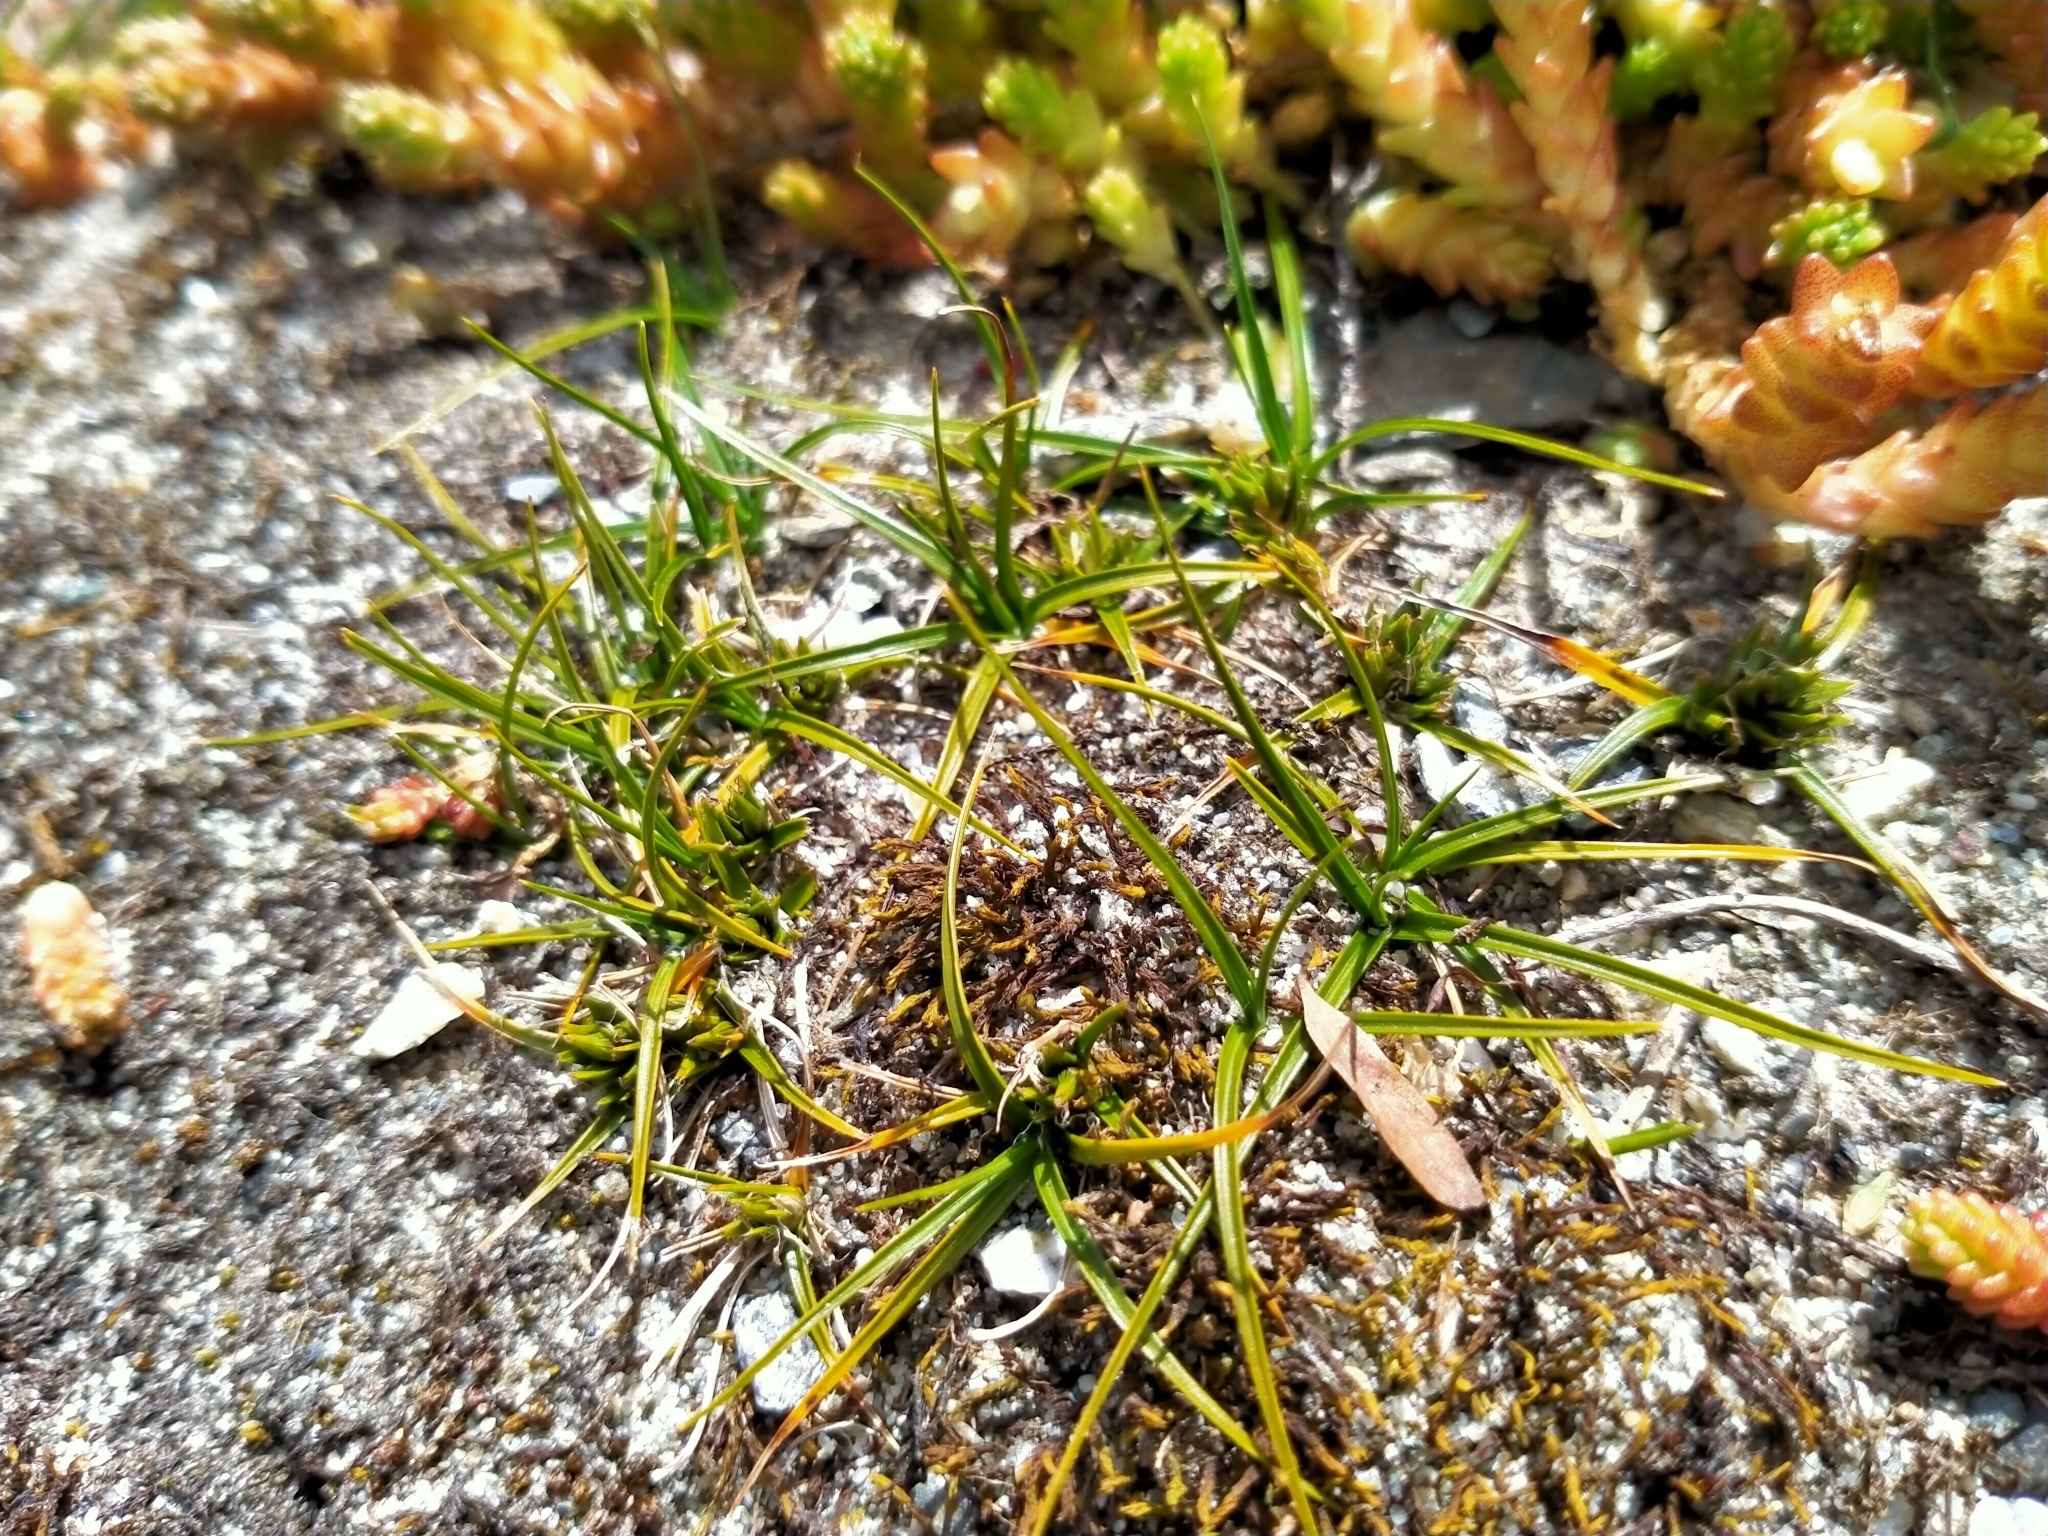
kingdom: Plantae
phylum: Tracheophyta
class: Liliopsida
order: Poales
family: Cyperaceae
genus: Carex
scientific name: Carex resectans
